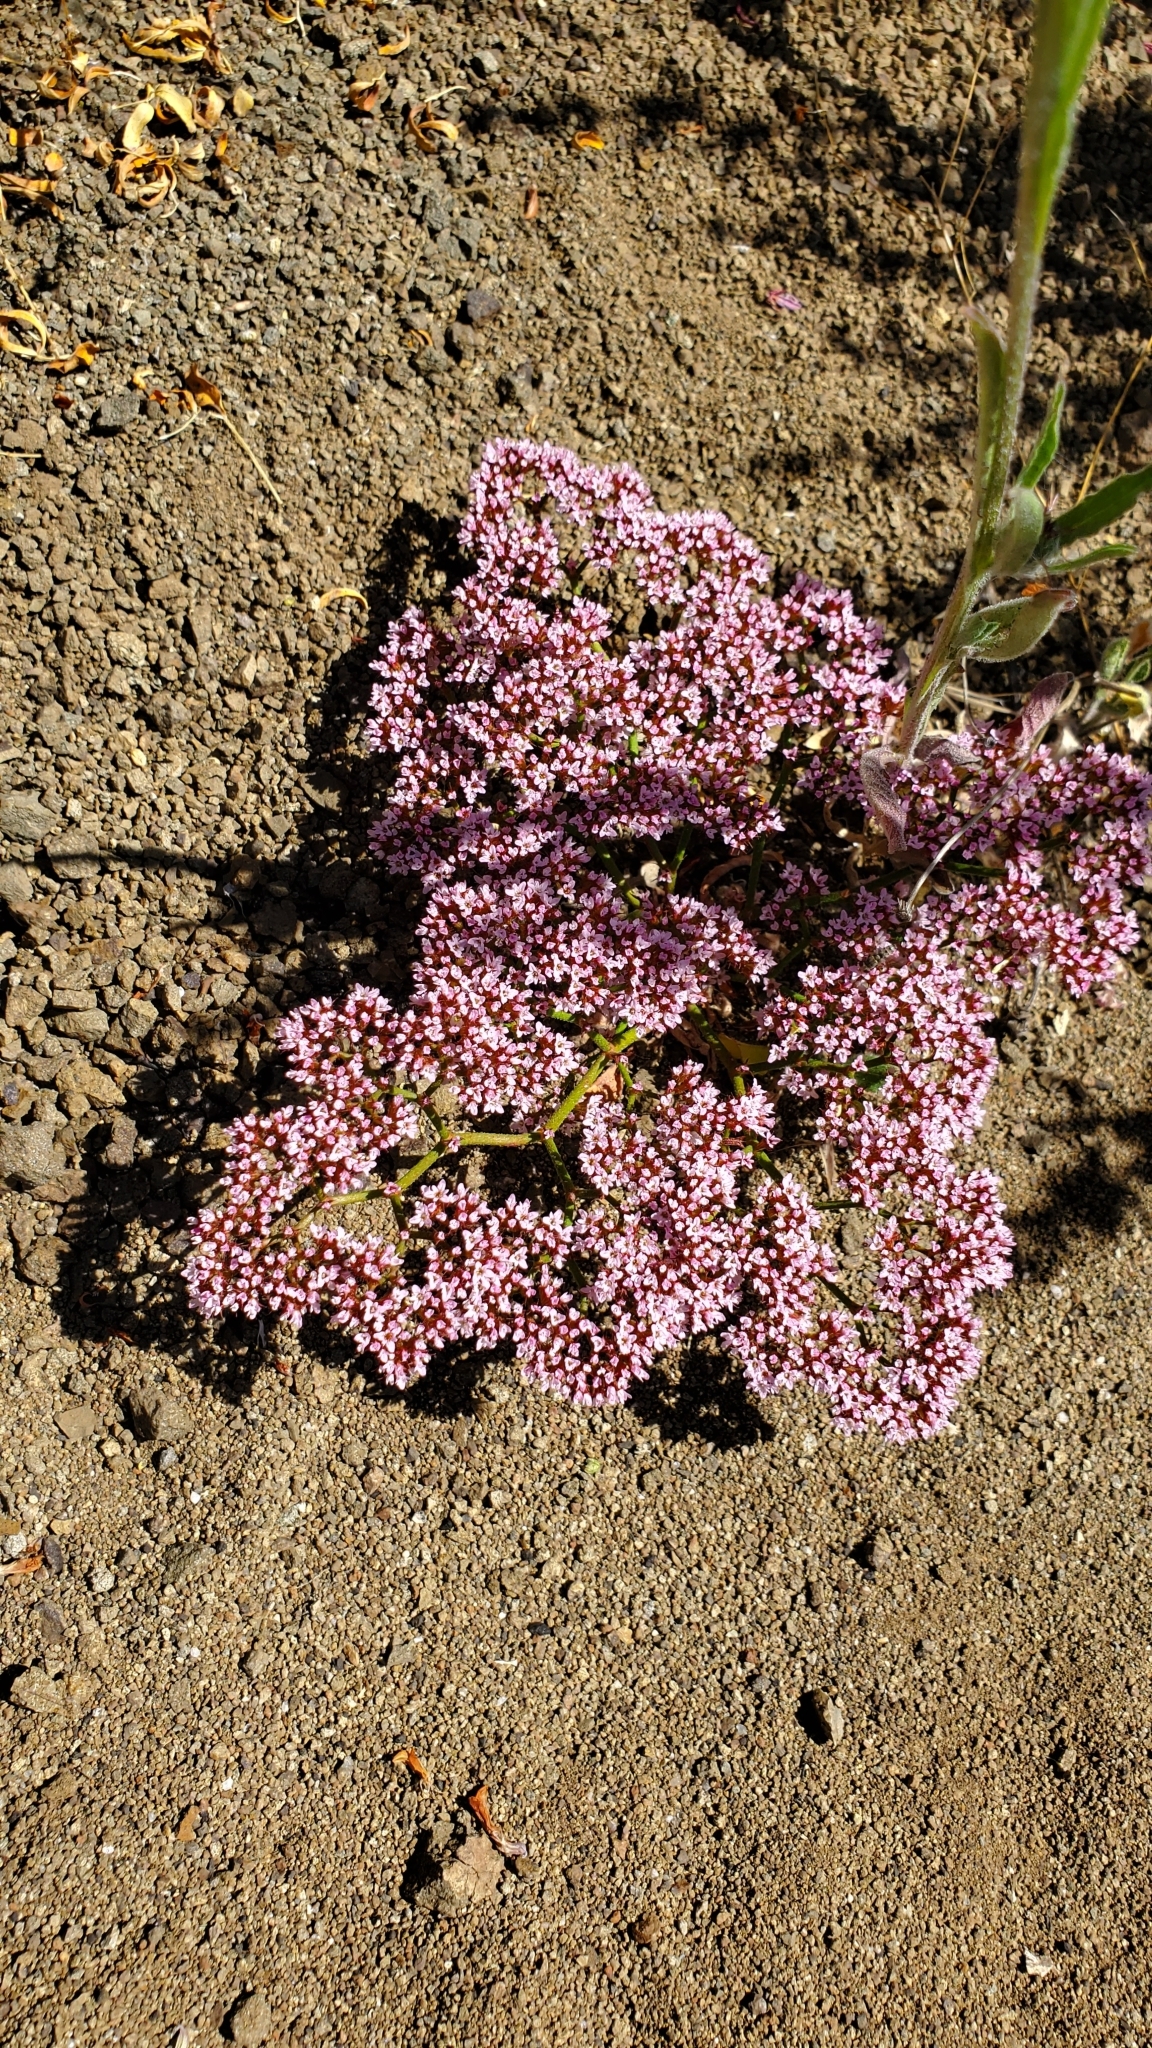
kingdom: Plantae
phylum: Tracheophyta
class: Magnoliopsida
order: Caryophyllales
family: Polygonaceae
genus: Chorizanthe
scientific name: Chorizanthe staticoides
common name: Turkish rugging
